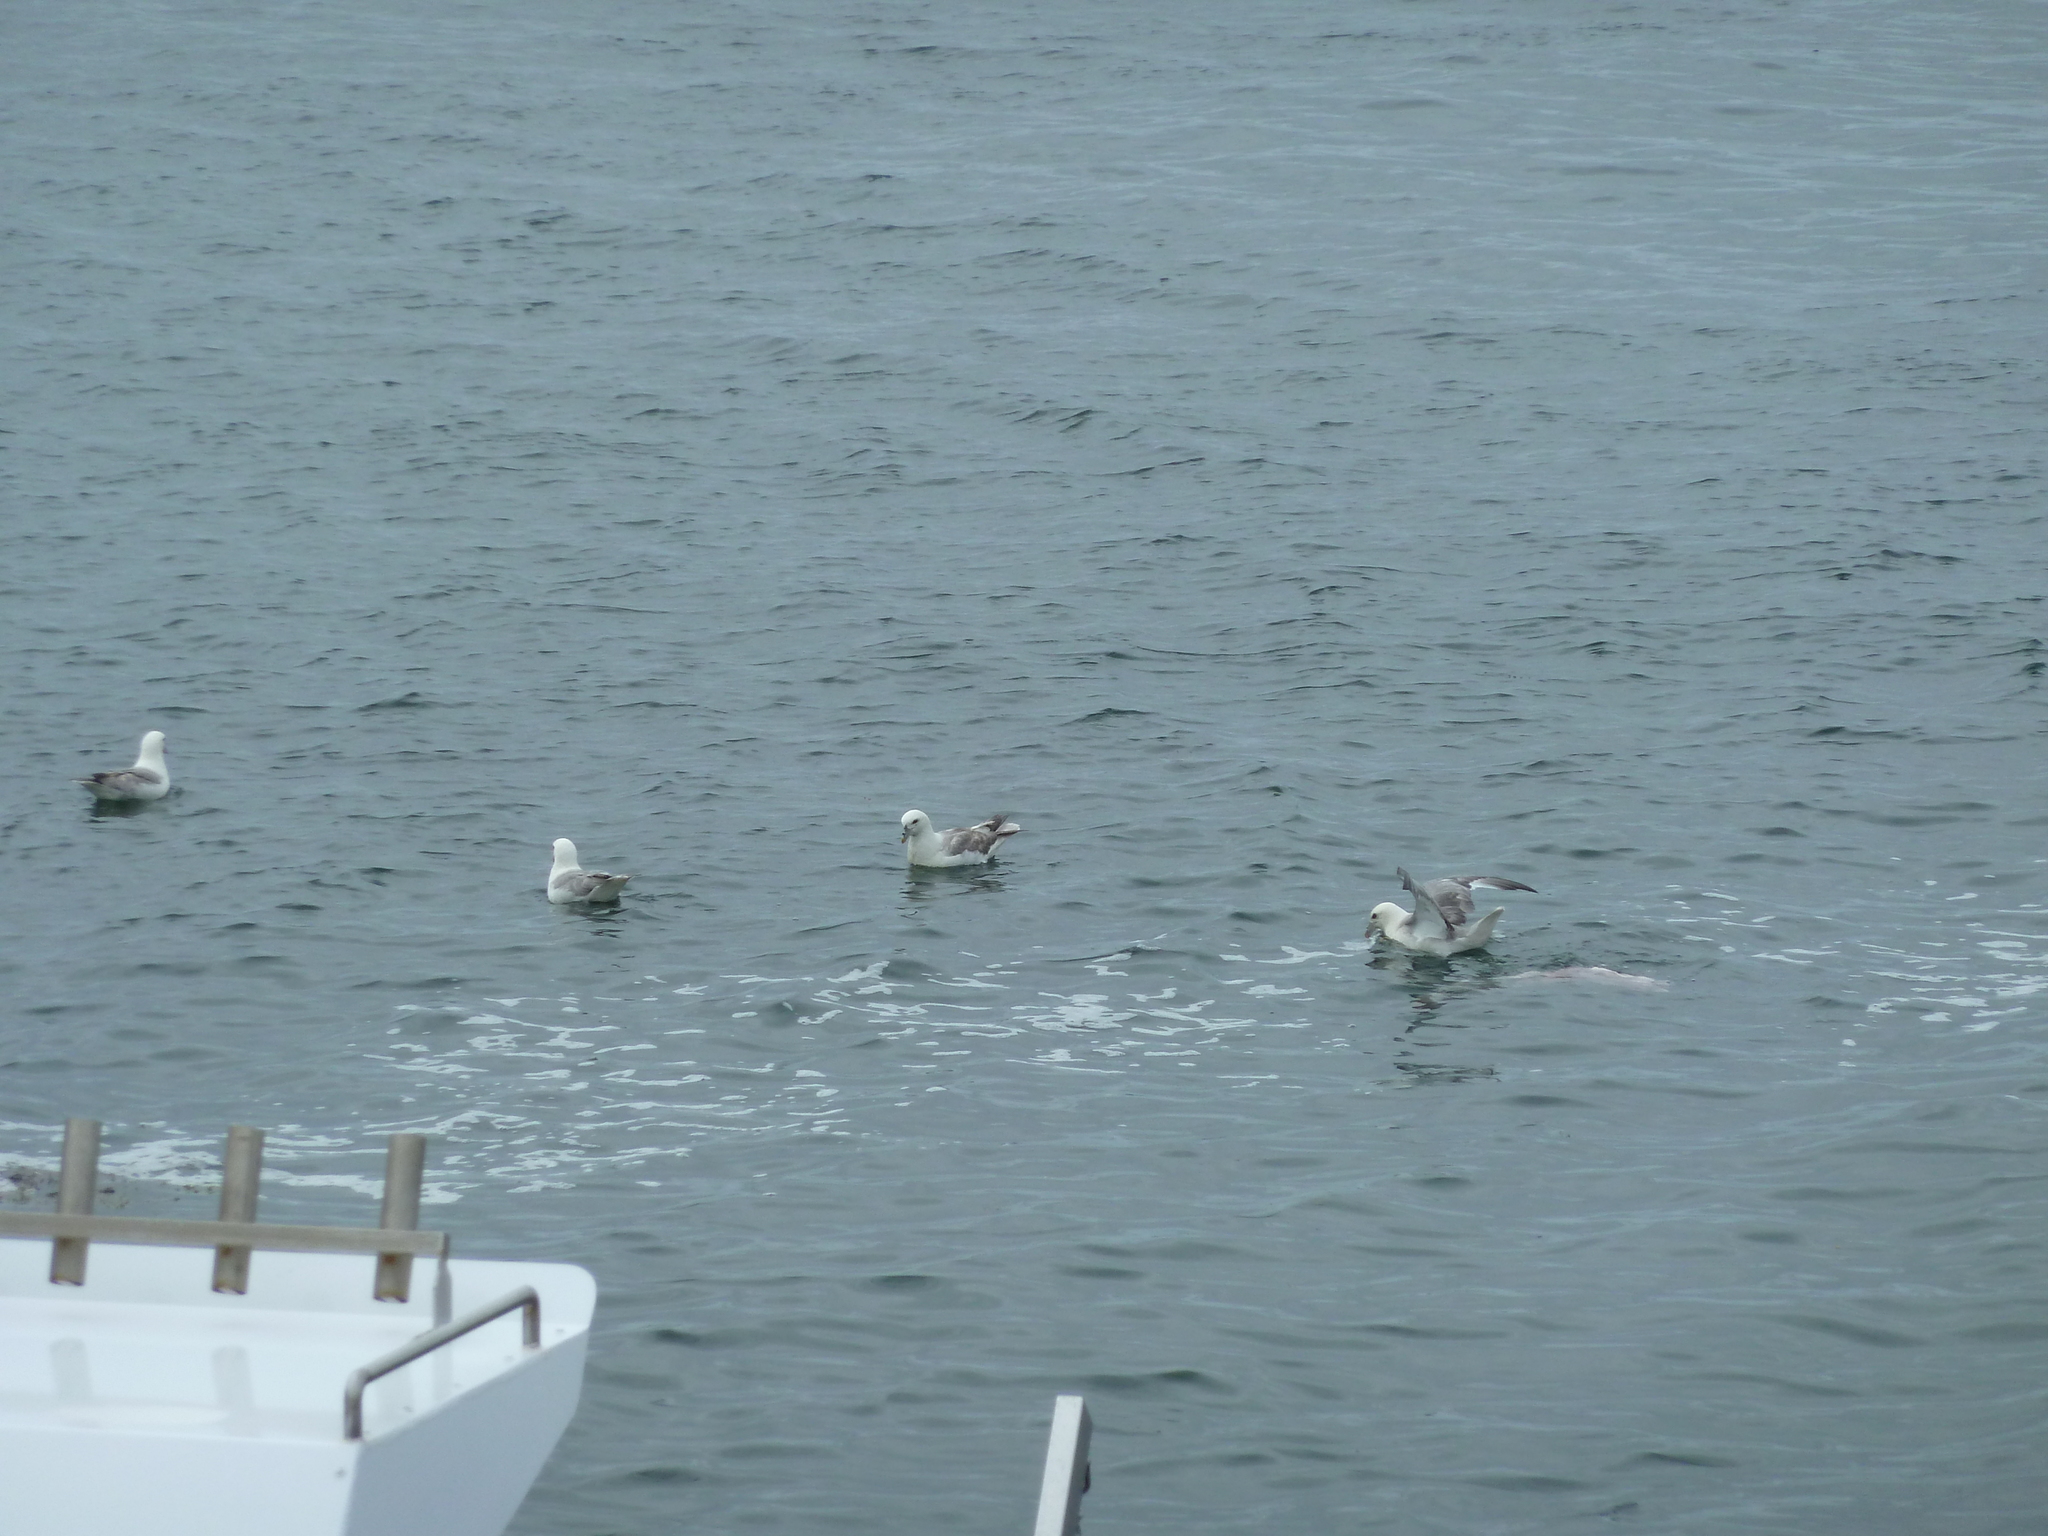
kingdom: Animalia
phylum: Chordata
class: Aves
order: Procellariiformes
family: Procellariidae
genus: Fulmarus
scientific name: Fulmarus glacialis
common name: Northern fulmar
